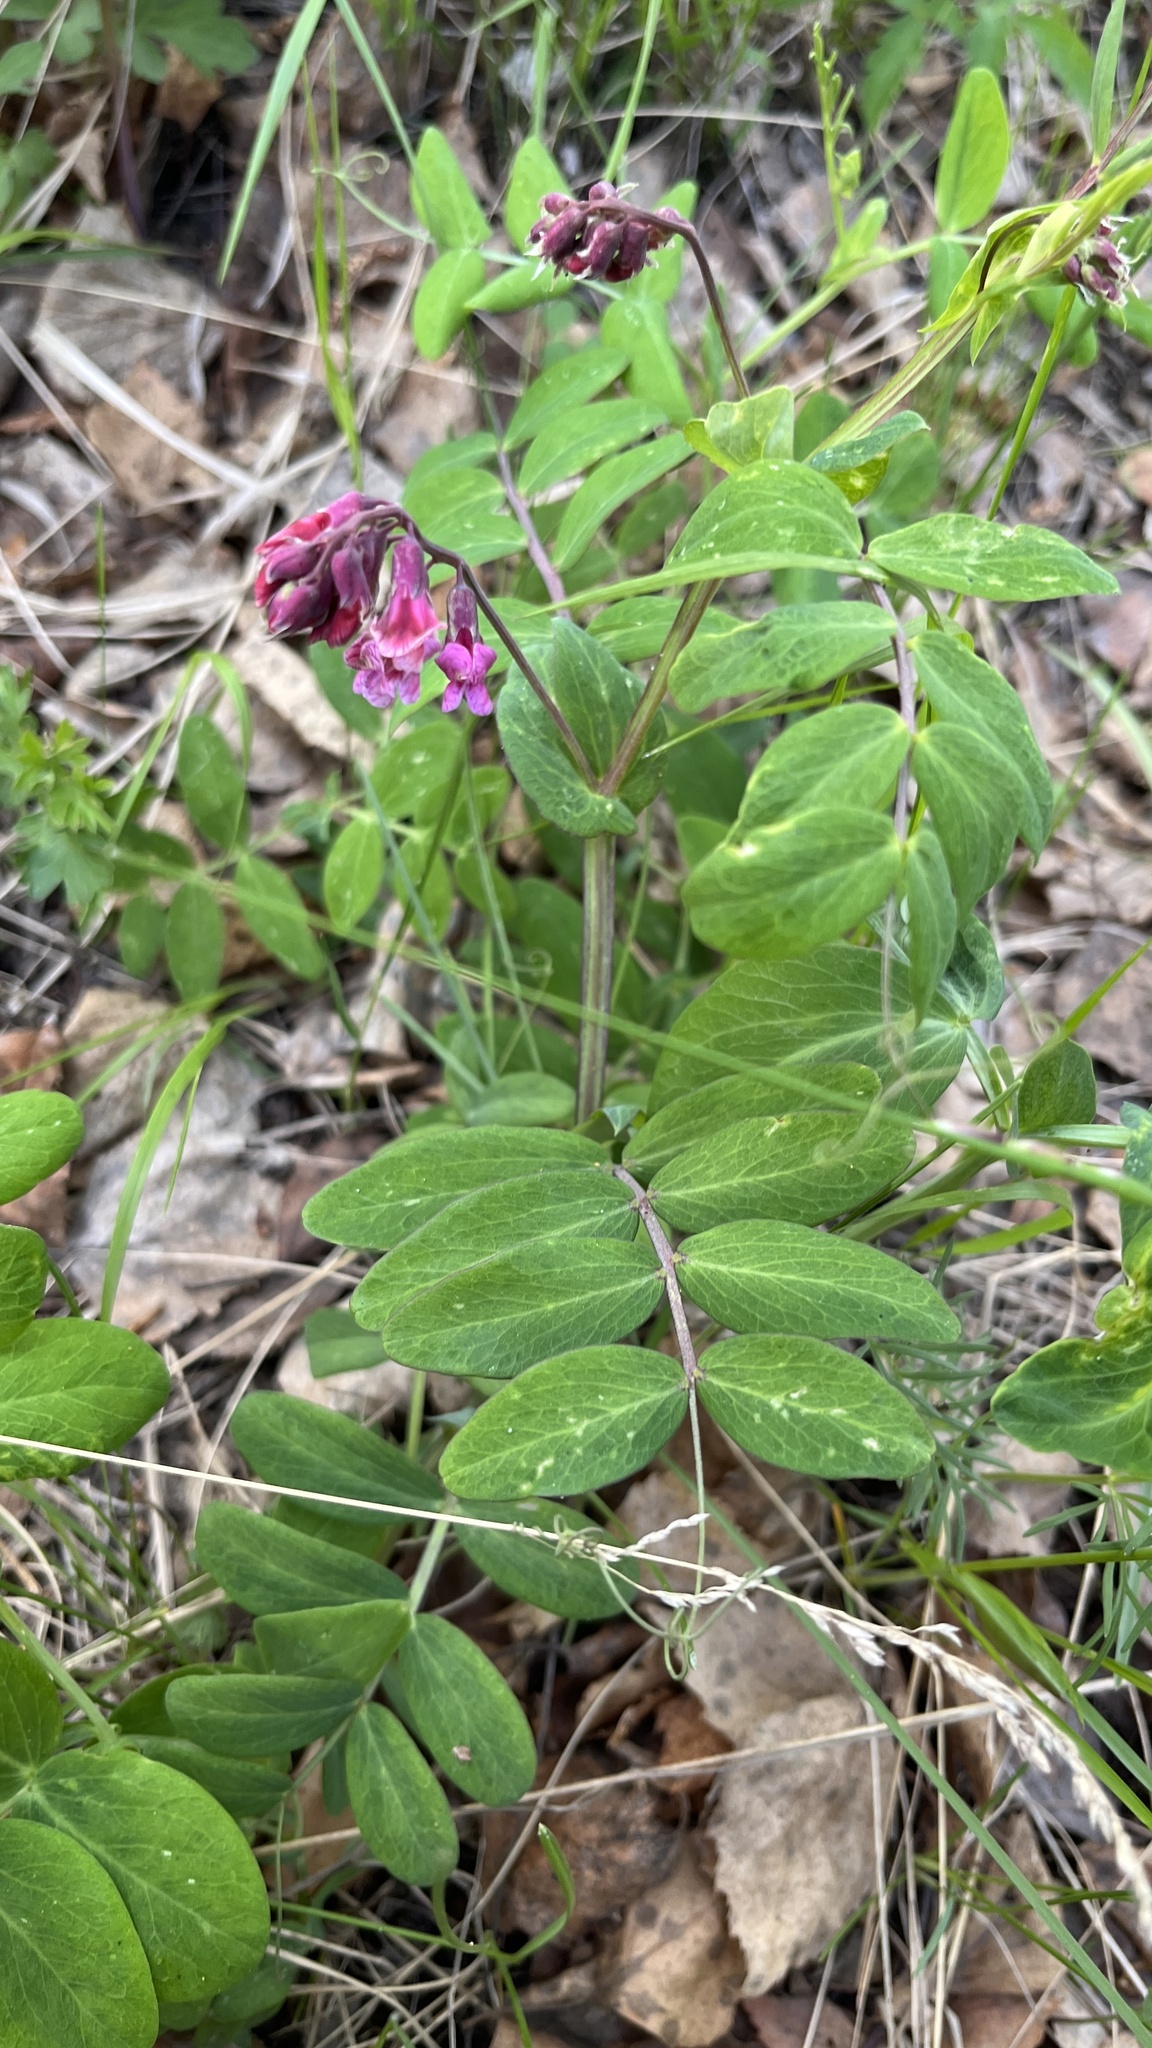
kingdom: Plantae
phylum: Tracheophyta
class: Magnoliopsida
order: Fabales
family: Fabaceae
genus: Lathyrus
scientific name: Lathyrus pisiformis
